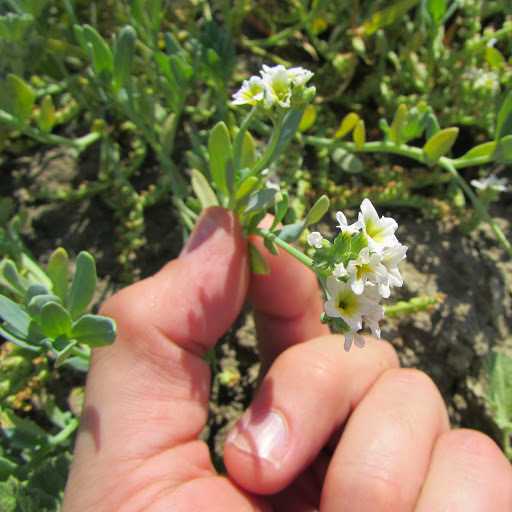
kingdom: Plantae
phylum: Tracheophyta
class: Magnoliopsida
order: Boraginales
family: Heliotropiaceae
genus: Heliotropium
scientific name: Heliotropium curassavicum
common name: Seaside heliotrope
